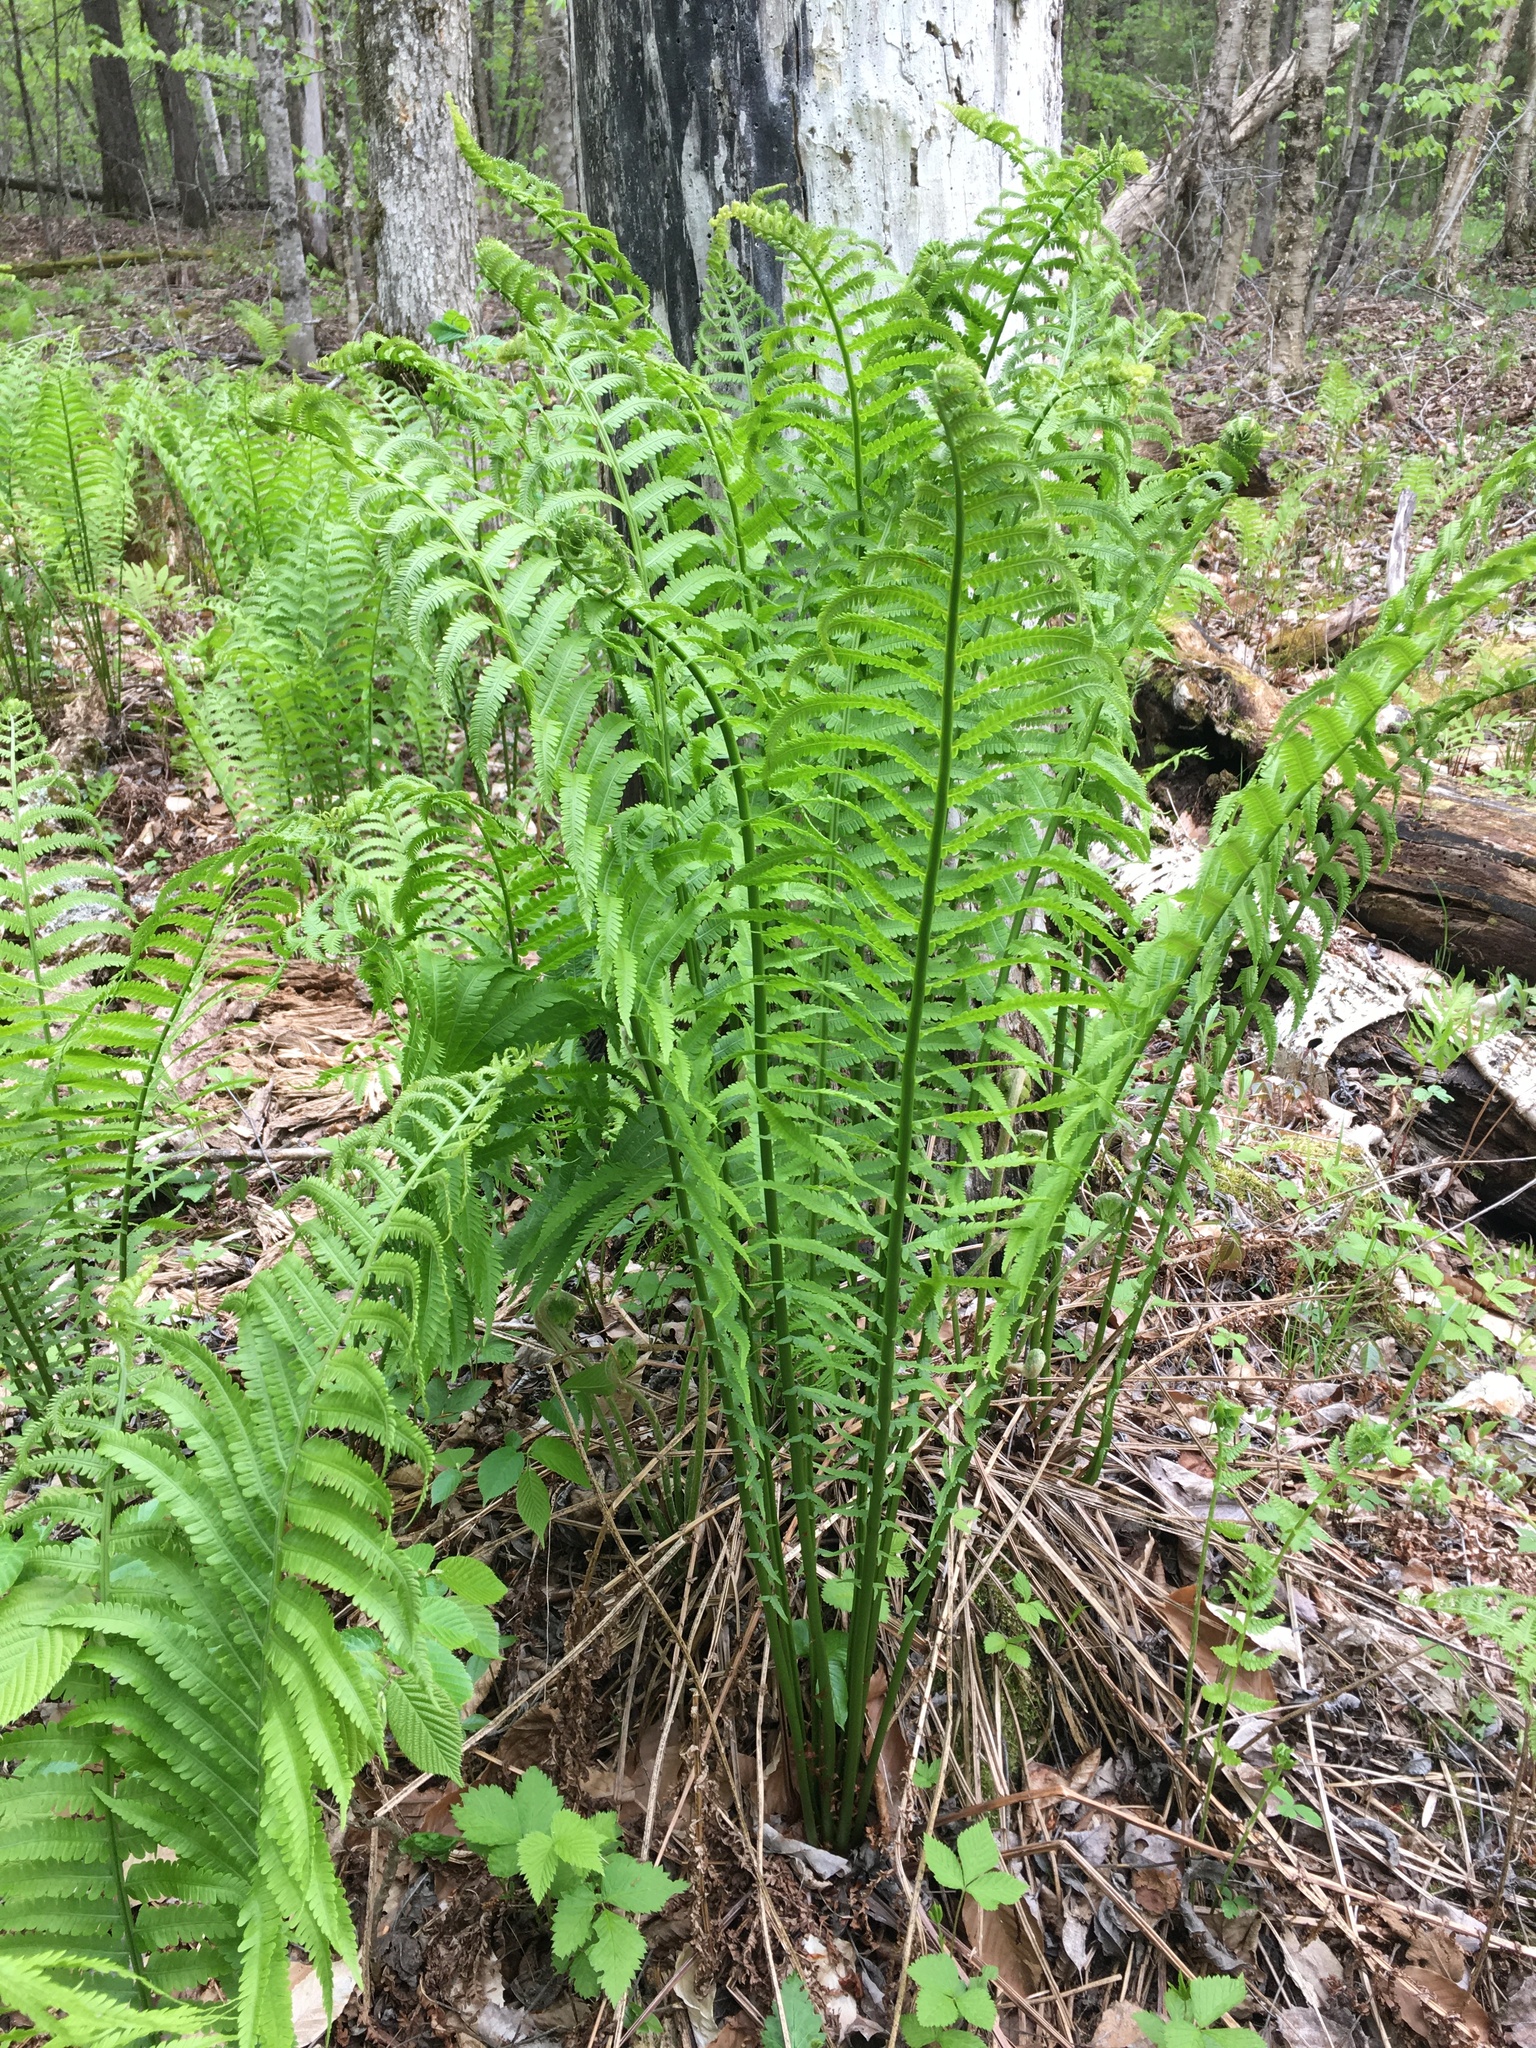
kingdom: Plantae
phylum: Tracheophyta
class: Polypodiopsida
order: Polypodiales
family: Onocleaceae
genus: Matteuccia
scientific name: Matteuccia struthiopteris
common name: Ostrich fern
